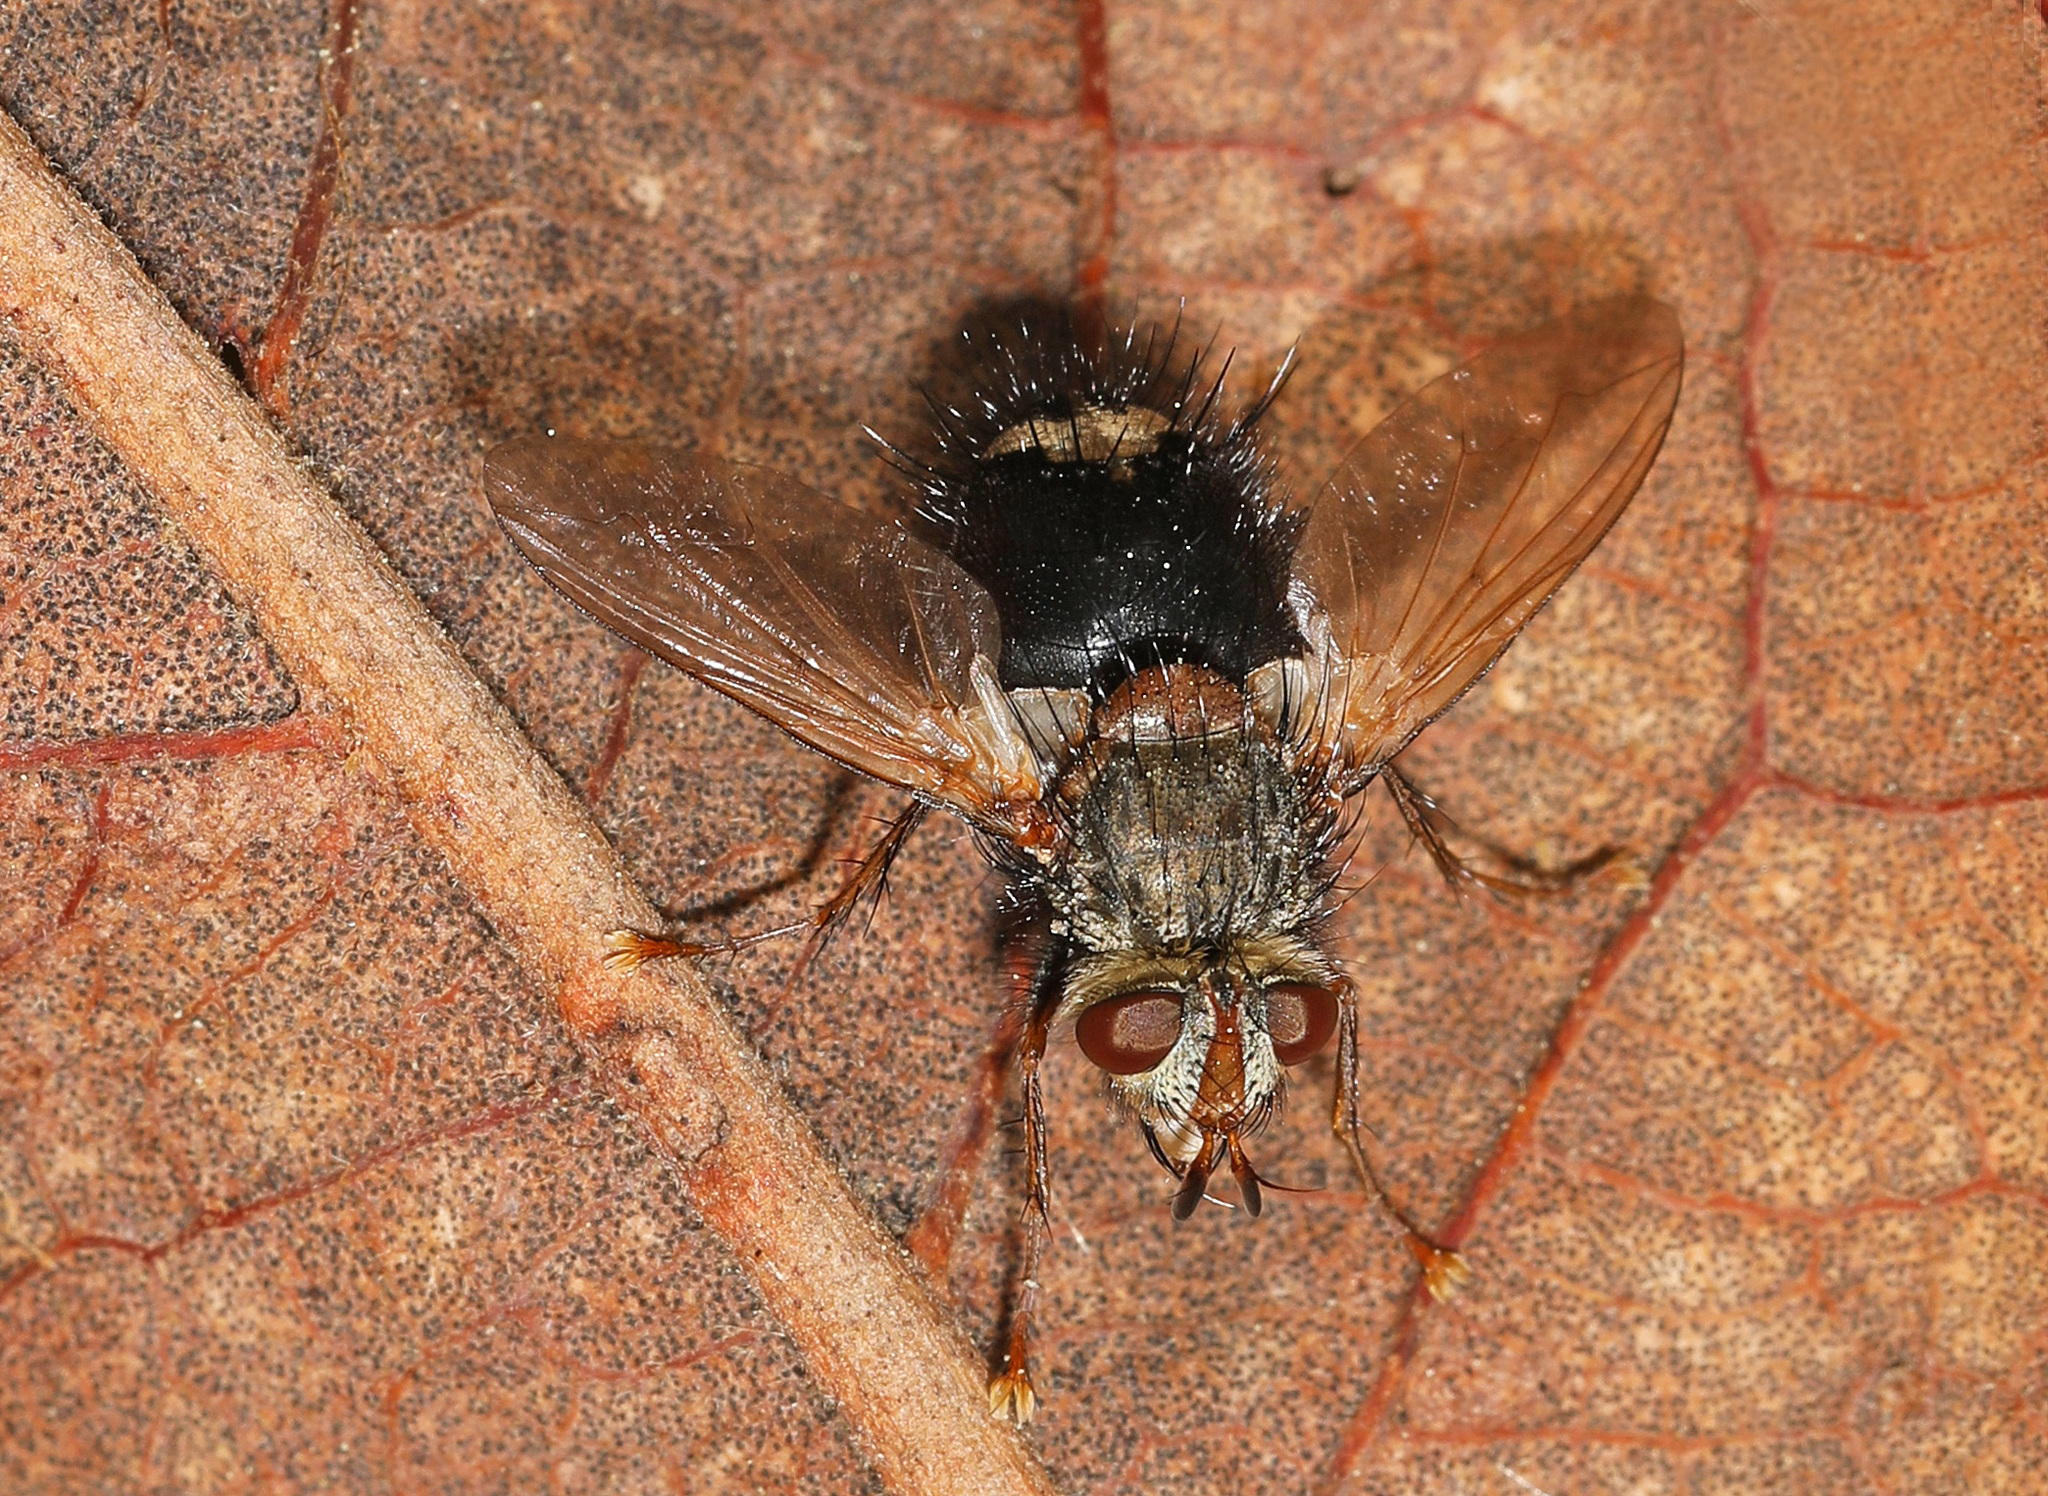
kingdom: Animalia
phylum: Arthropoda
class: Insecta
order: Diptera
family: Tachinidae
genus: Epalpus
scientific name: Epalpus signifer
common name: Early tachinid fly
